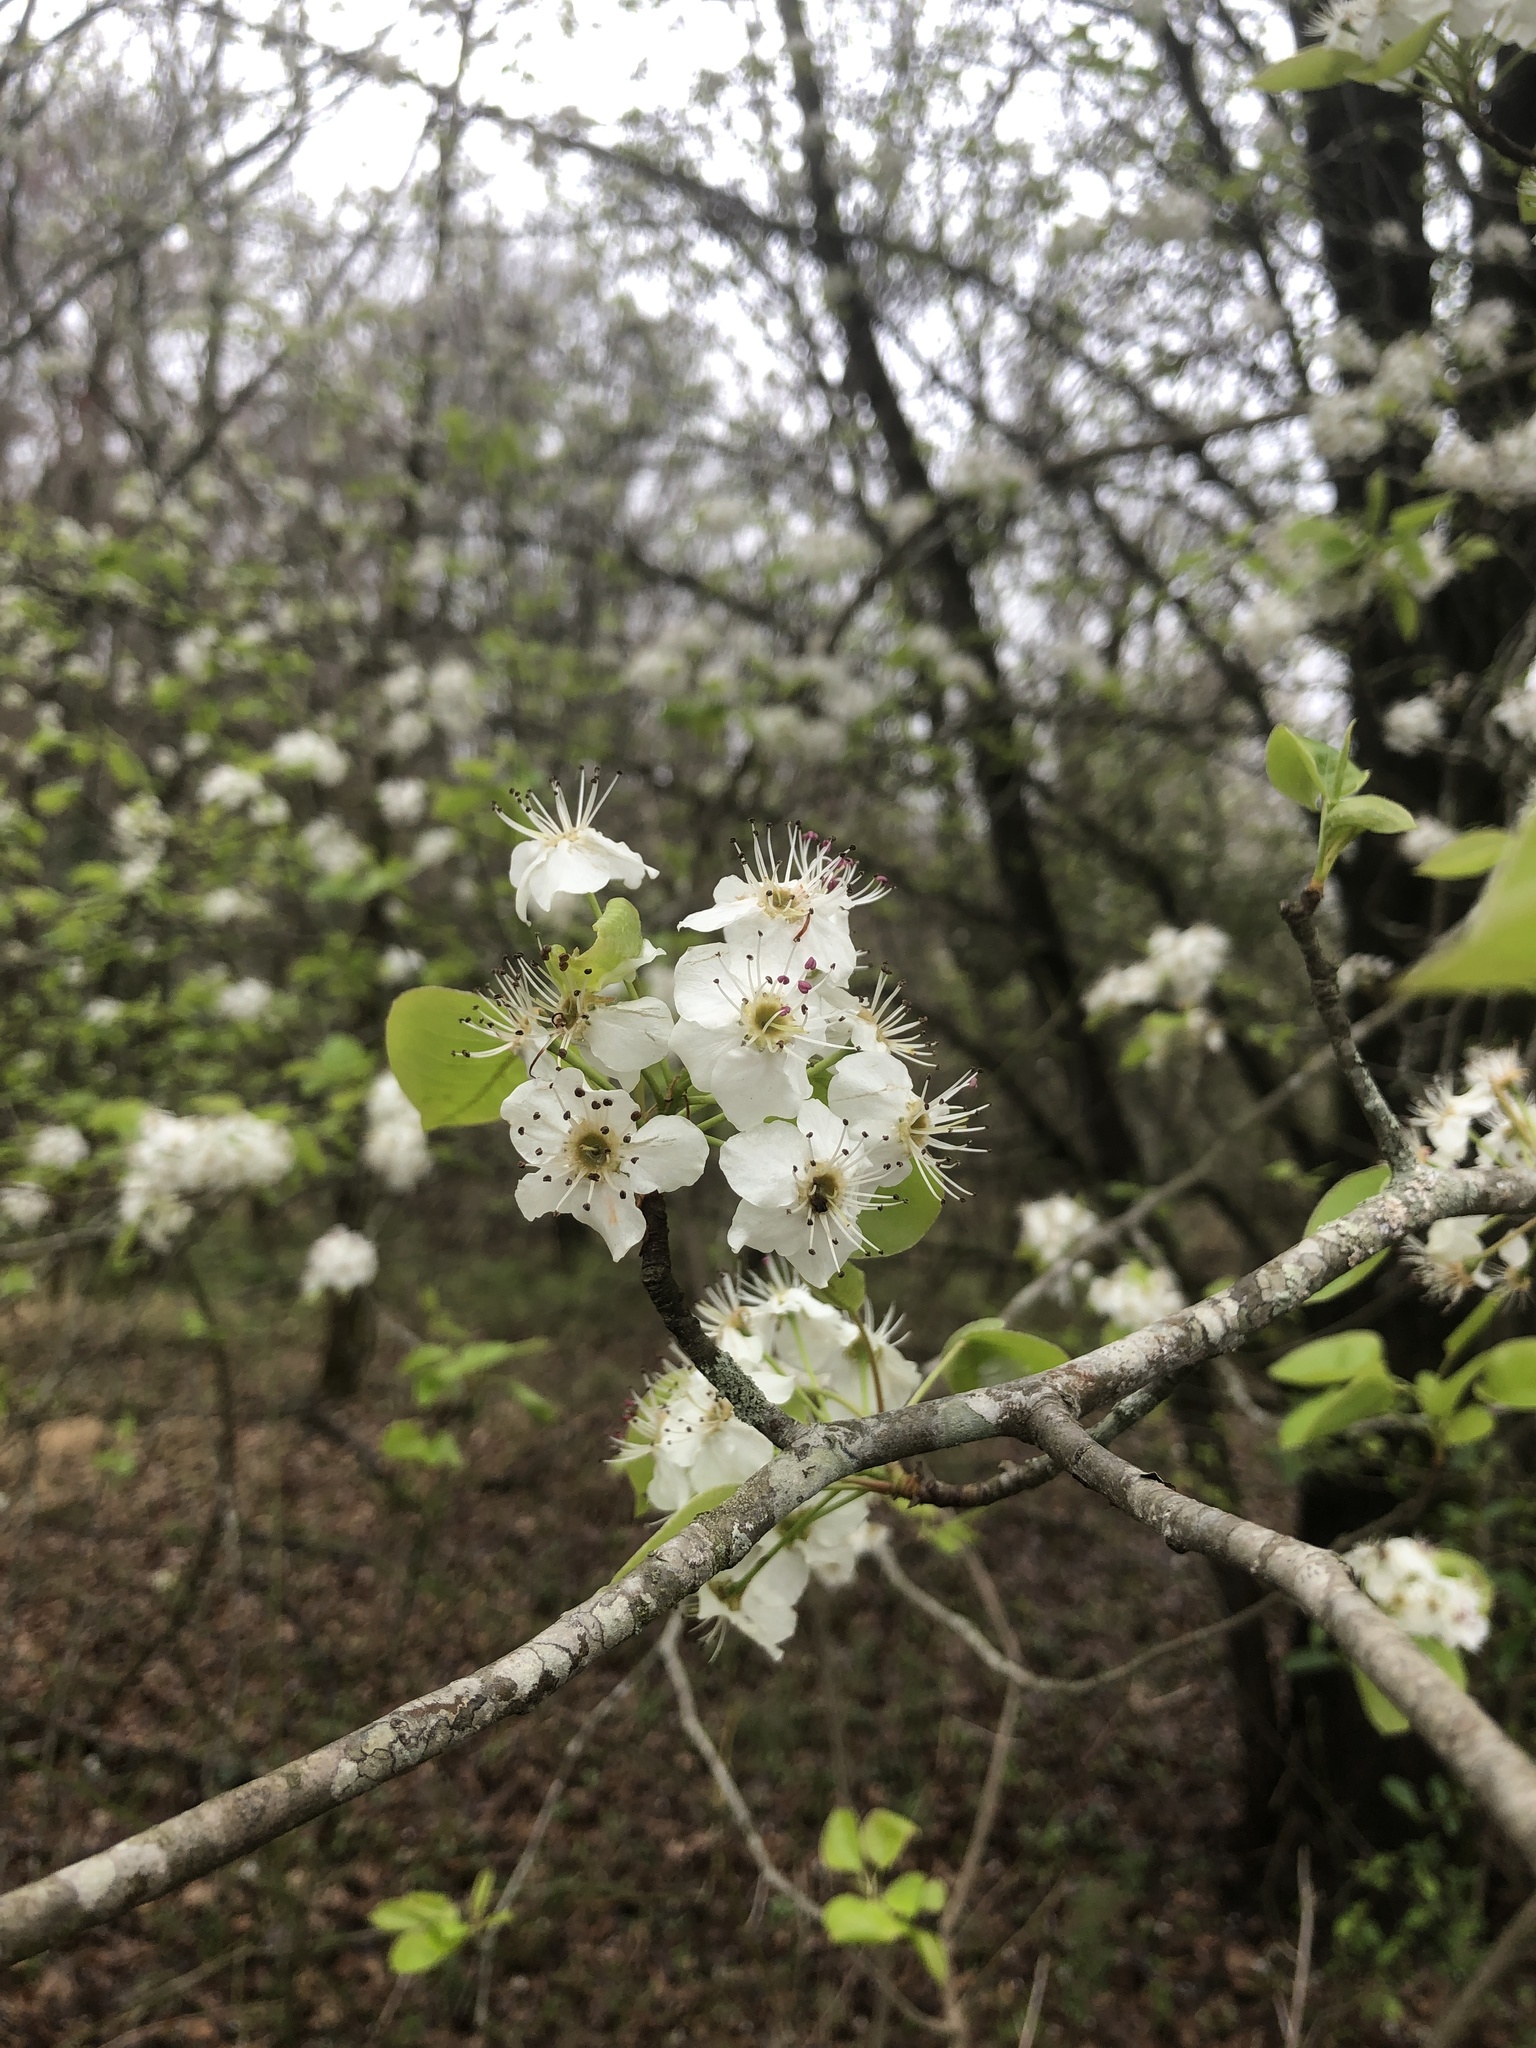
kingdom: Plantae
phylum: Tracheophyta
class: Magnoliopsida
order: Rosales
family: Rosaceae
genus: Pyrus
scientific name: Pyrus calleryana
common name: Callery pear
